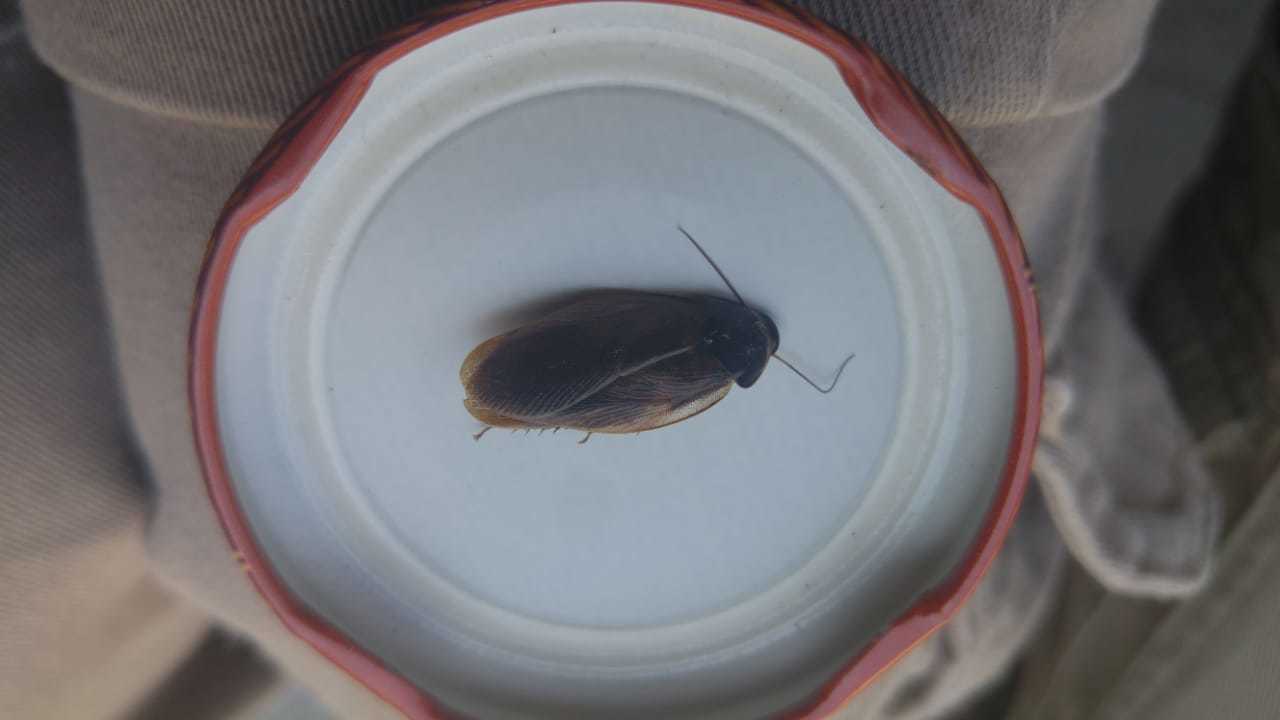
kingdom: Animalia
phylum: Arthropoda
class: Insecta
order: Blattodea
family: Blaberidae
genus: Pycnoscelus
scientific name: Pycnoscelus surinamensis
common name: Surinam cockroach
